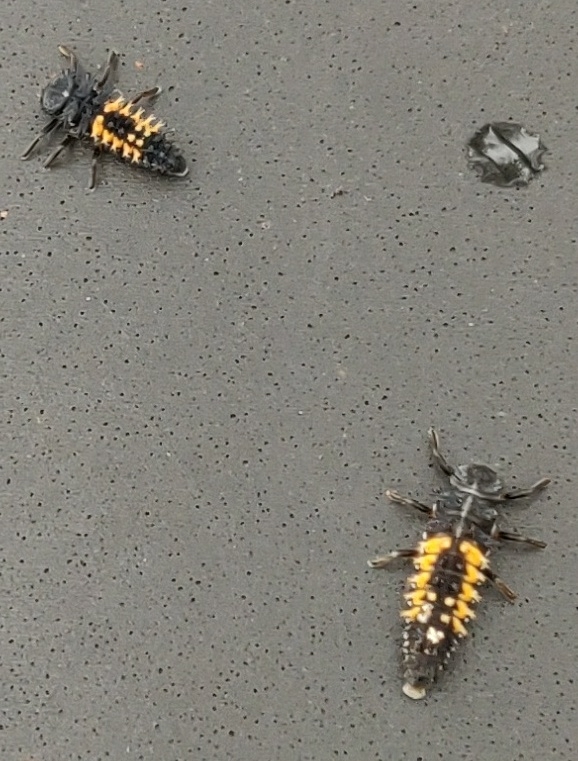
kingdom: Animalia
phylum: Arthropoda
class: Insecta
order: Coleoptera
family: Coccinellidae
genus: Harmonia
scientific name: Harmonia axyridis
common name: Harlequin ladybird
